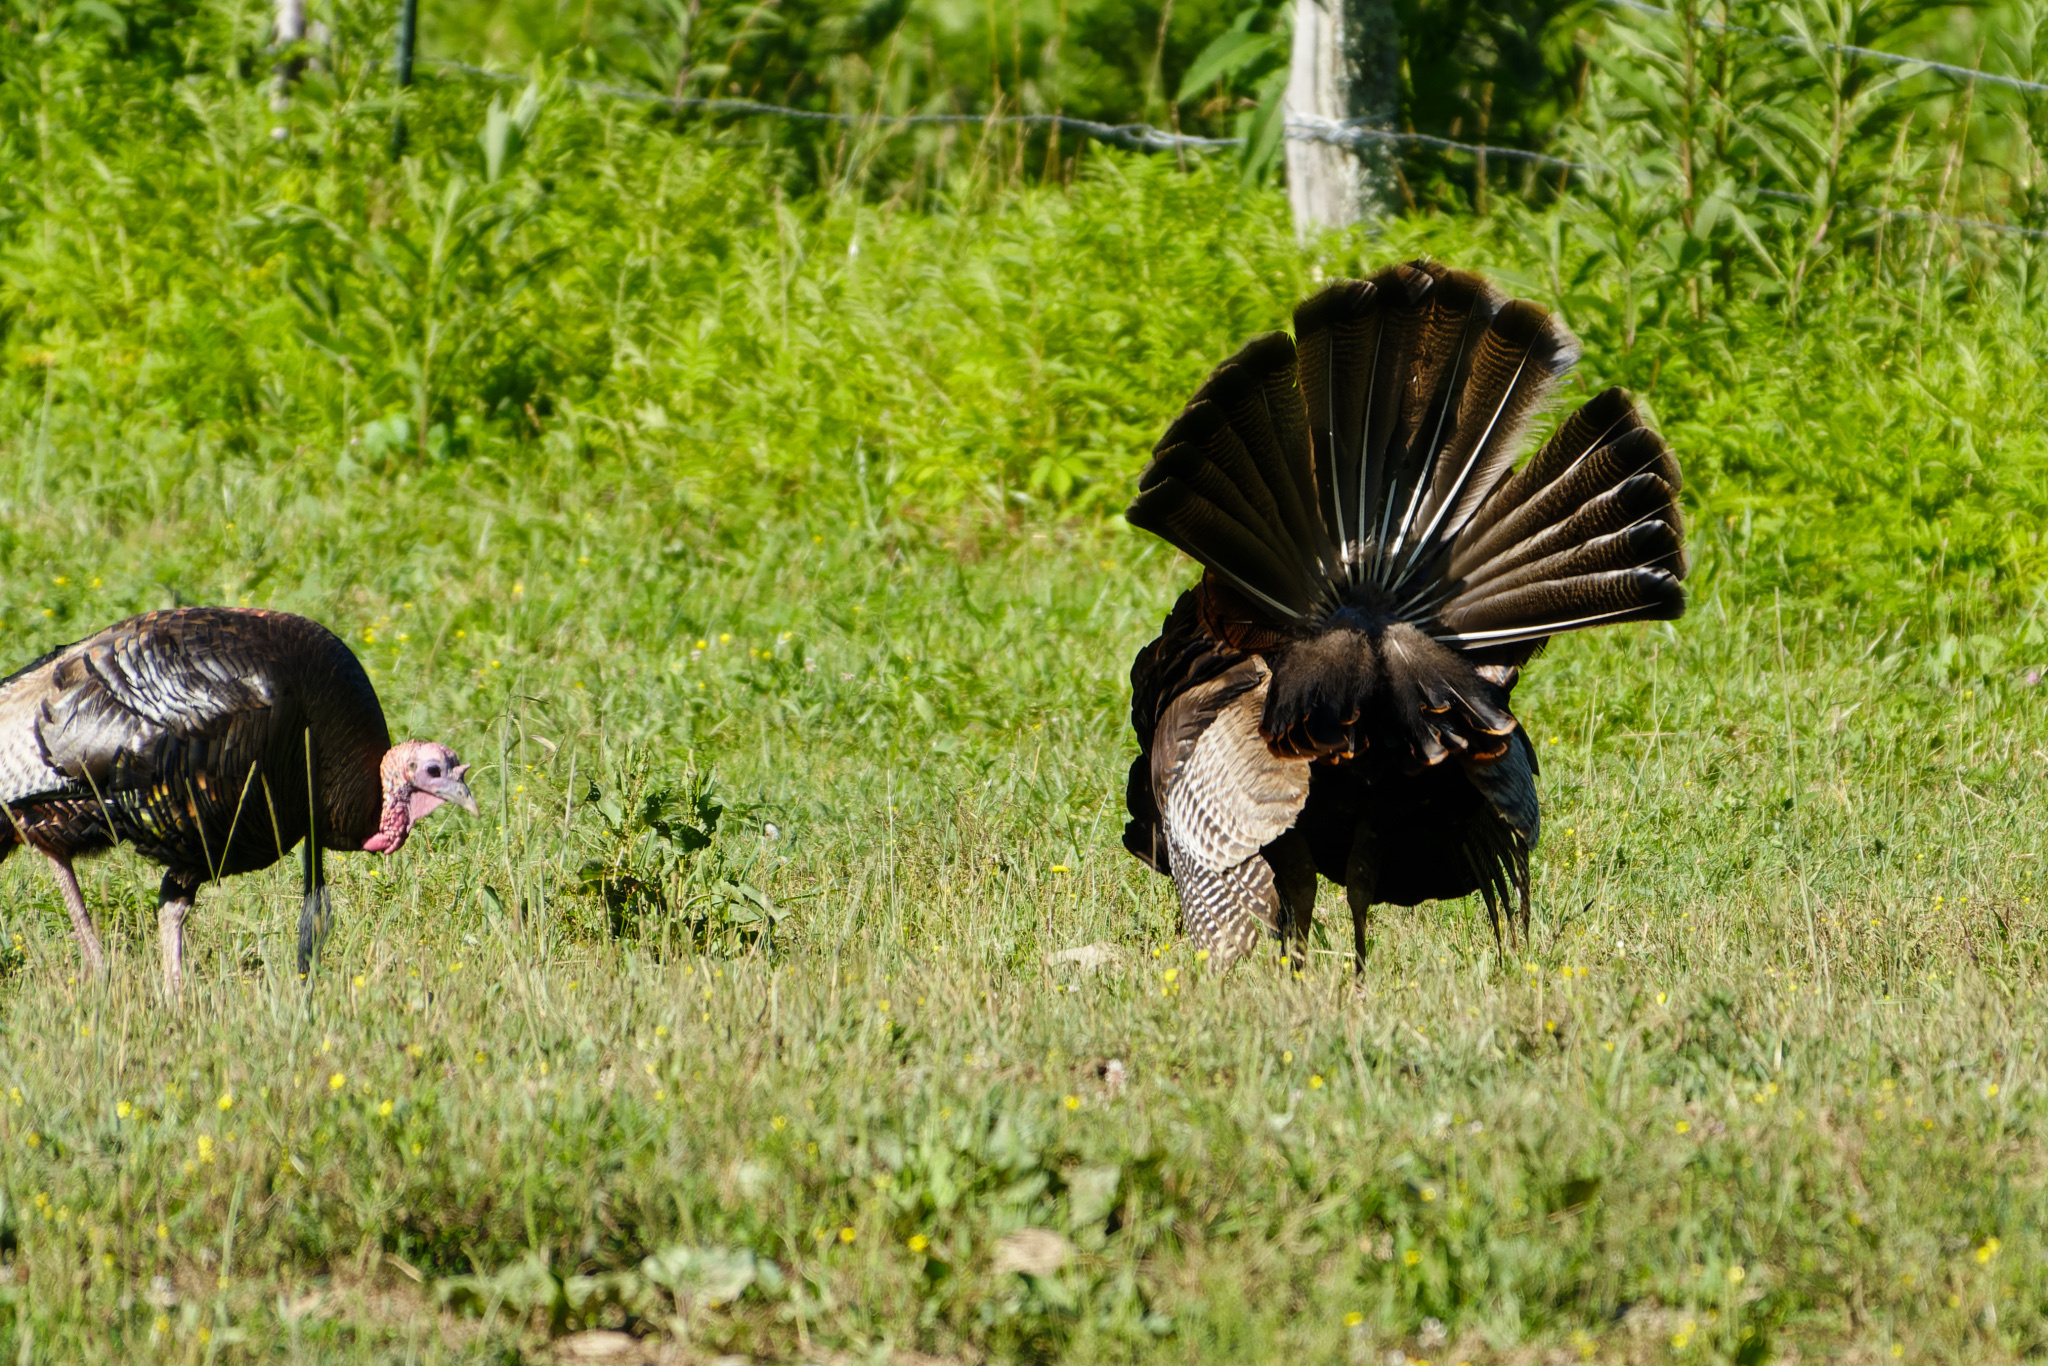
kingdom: Animalia
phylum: Chordata
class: Aves
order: Galliformes
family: Phasianidae
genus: Meleagris
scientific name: Meleagris gallopavo
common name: Wild turkey
